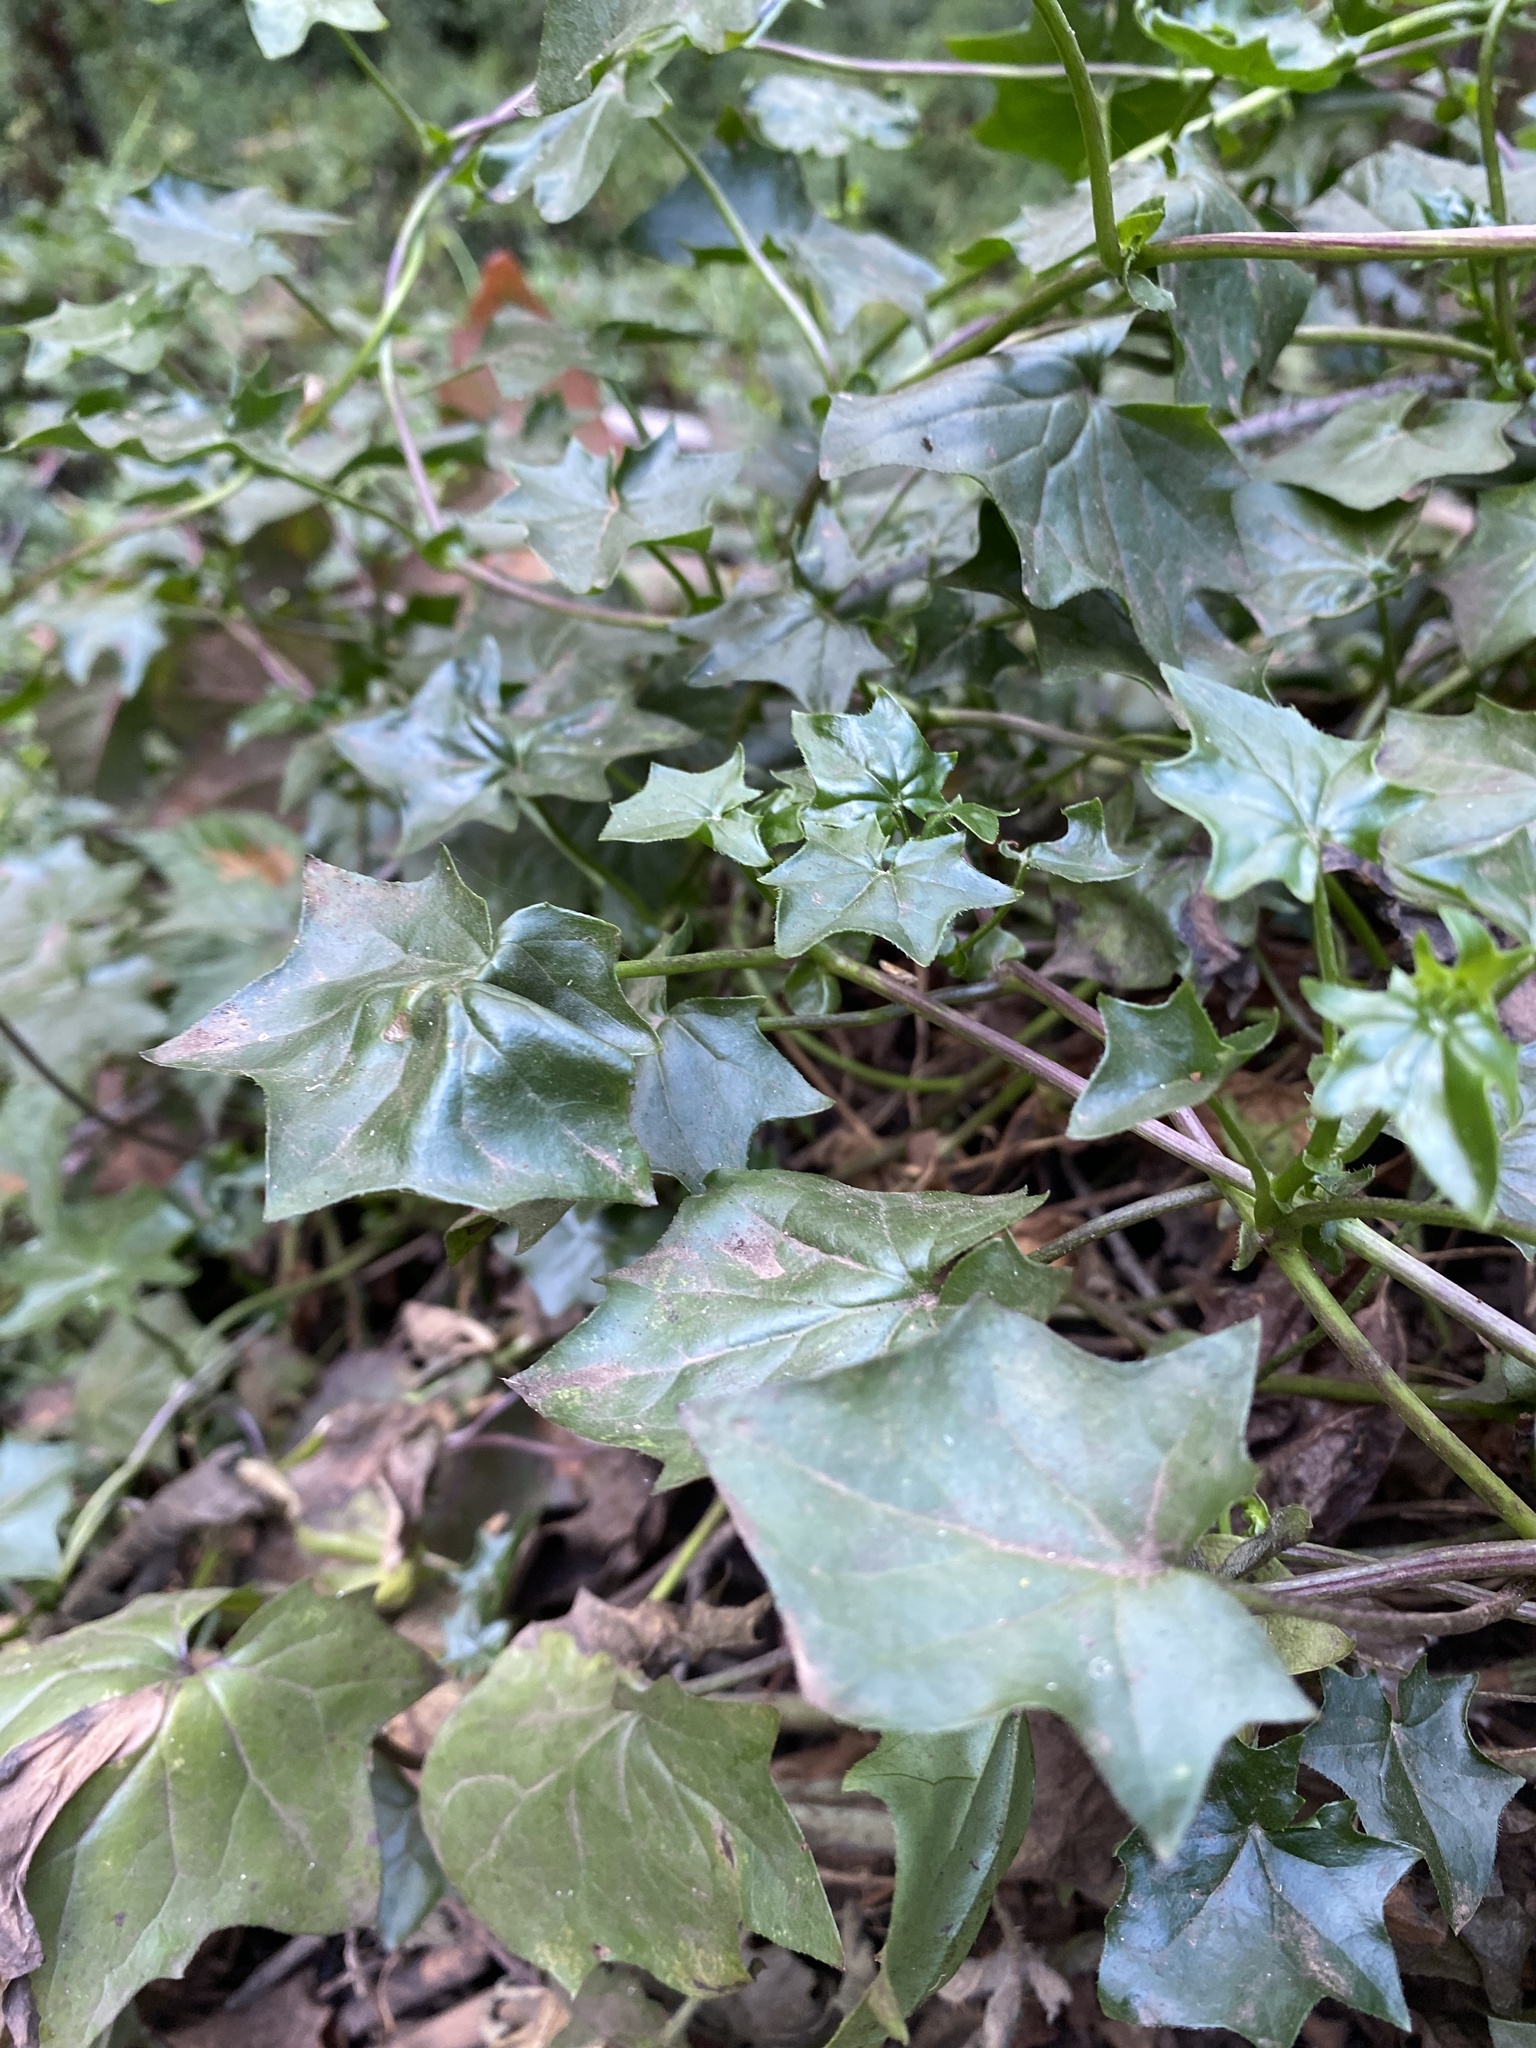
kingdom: Plantae
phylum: Tracheophyta
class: Magnoliopsida
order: Asterales
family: Asteraceae
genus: Delairea
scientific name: Delairea odorata
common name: Cape-ivy
